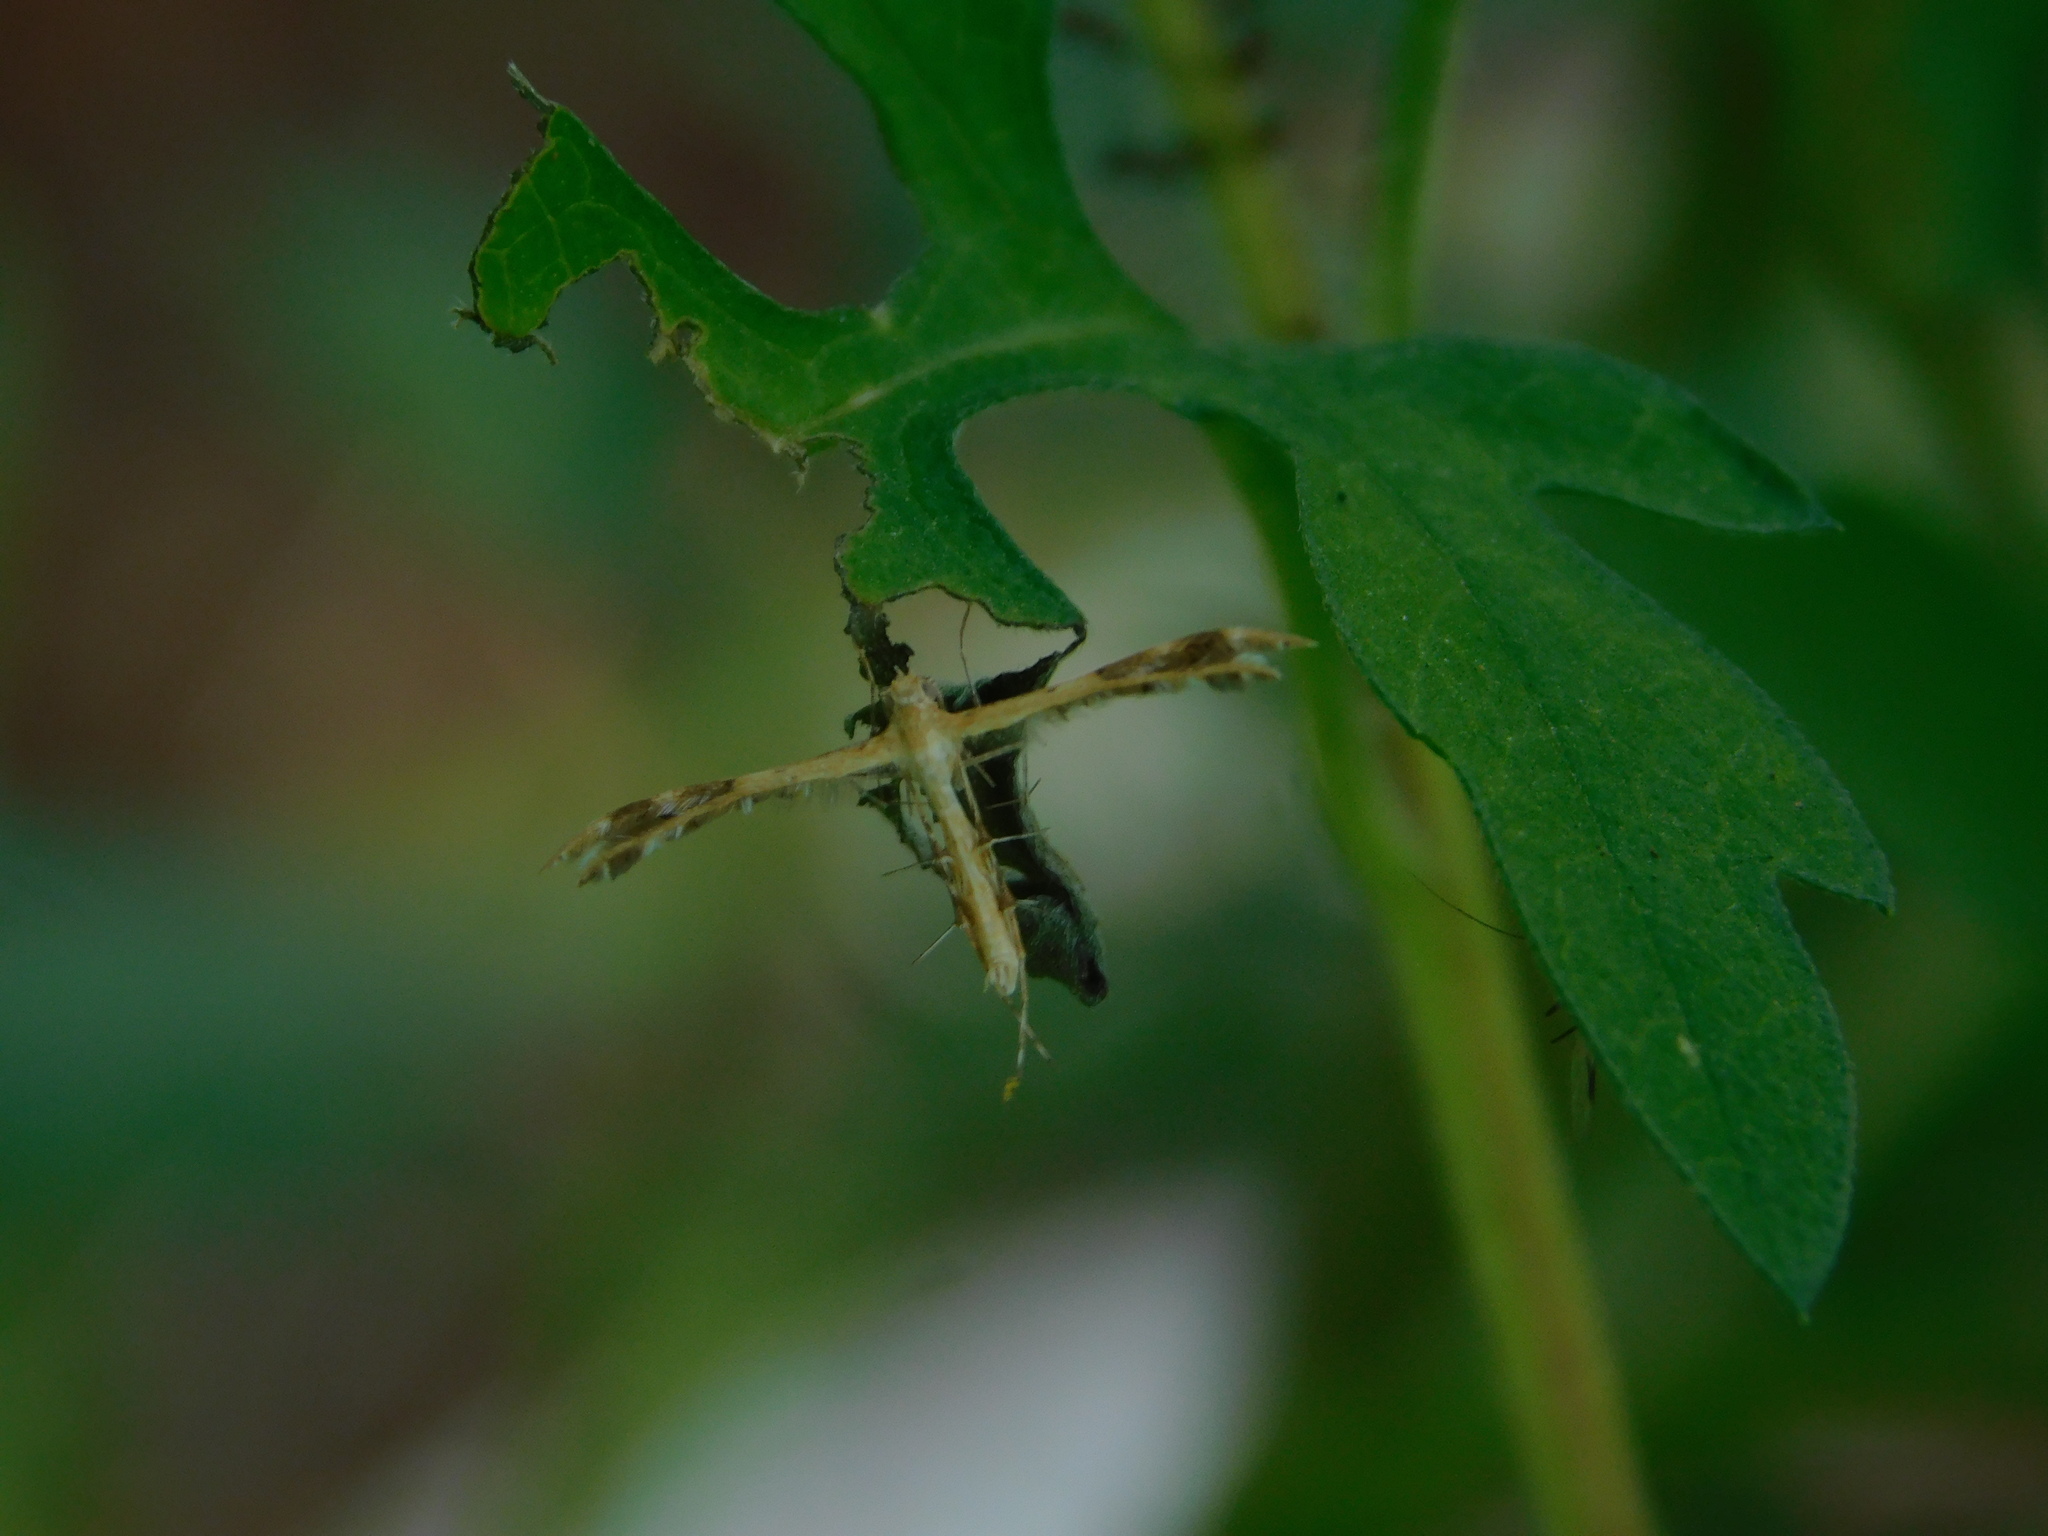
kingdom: Animalia
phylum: Arthropoda
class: Insecta
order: Lepidoptera
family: Pterophoridae
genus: Megalorhipida
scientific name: Megalorhipida leucodactylus
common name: Plume moth
